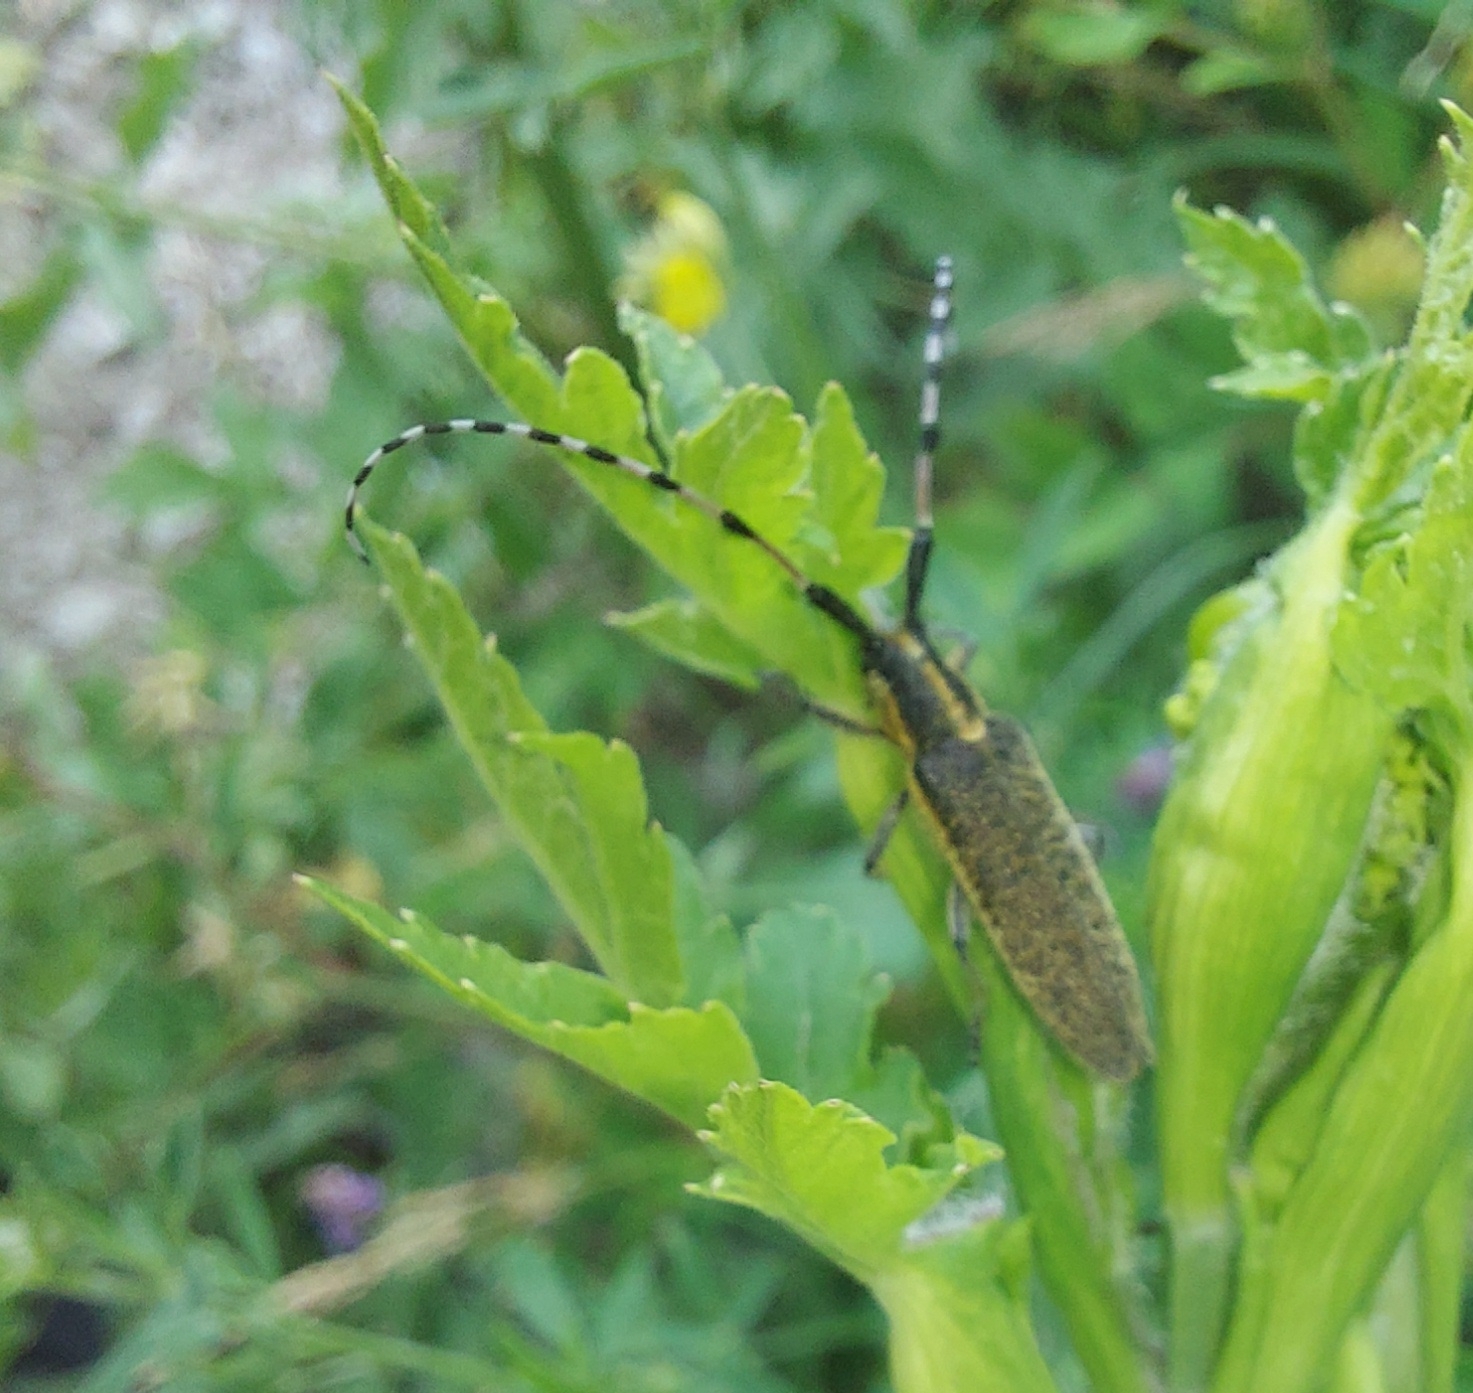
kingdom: Animalia
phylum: Arthropoda
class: Insecta
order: Coleoptera
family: Cerambycidae
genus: Agapanthia
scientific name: Agapanthia dahlii
